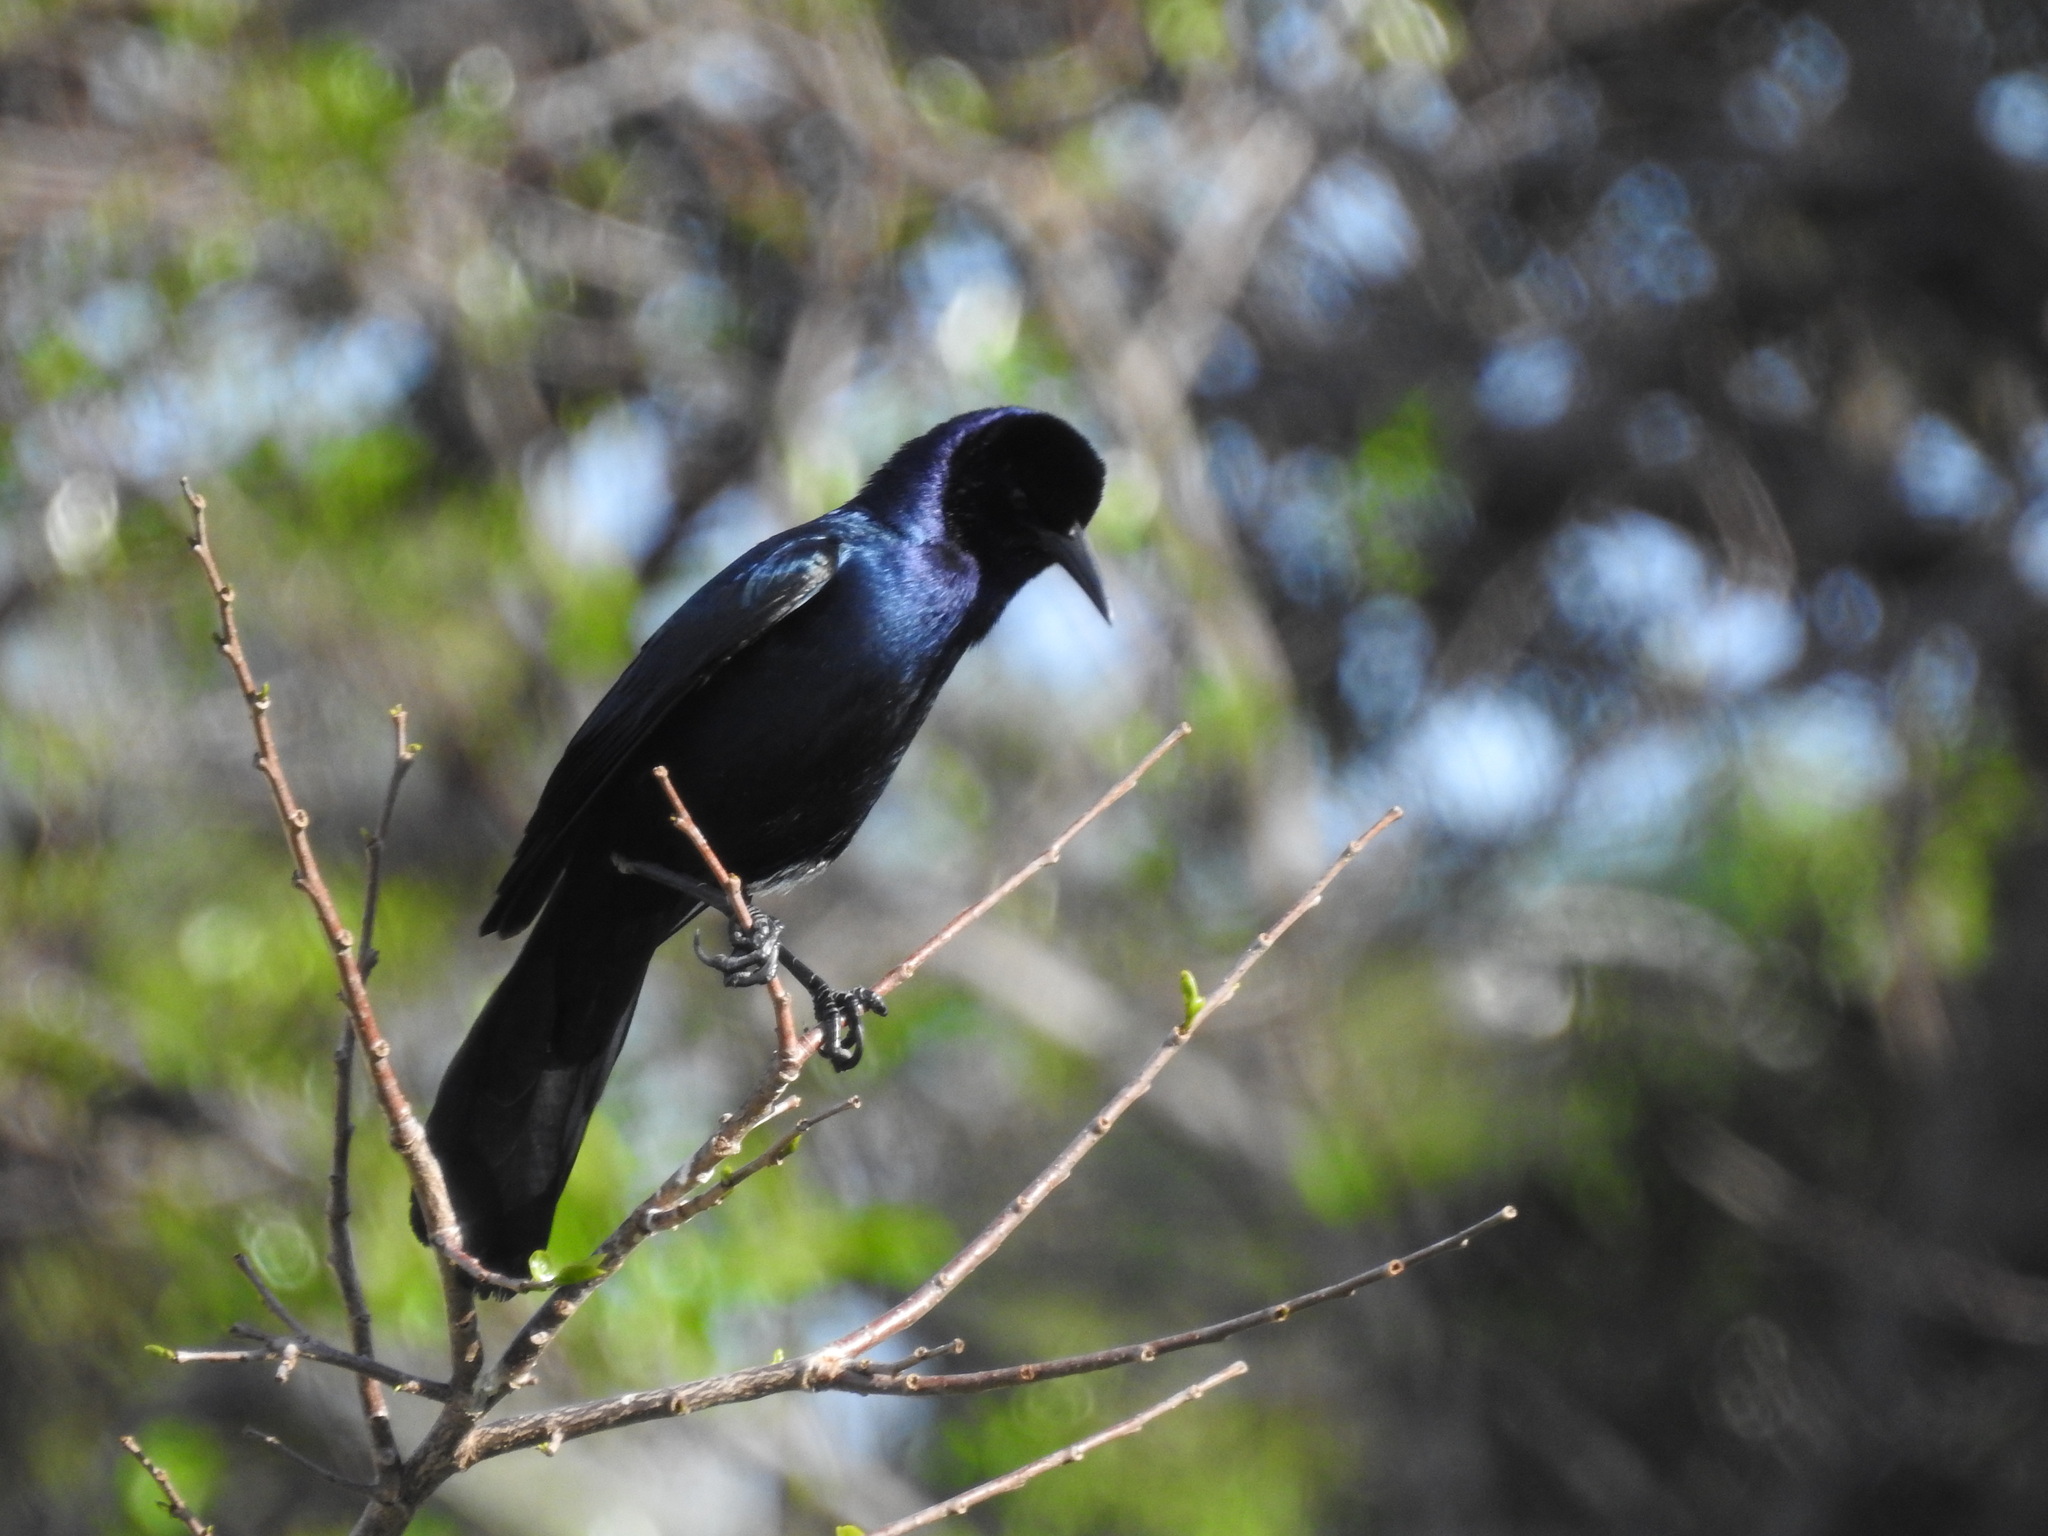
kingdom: Animalia
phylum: Chordata
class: Aves
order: Passeriformes
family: Icteridae
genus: Quiscalus
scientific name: Quiscalus major
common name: Boat-tailed grackle
